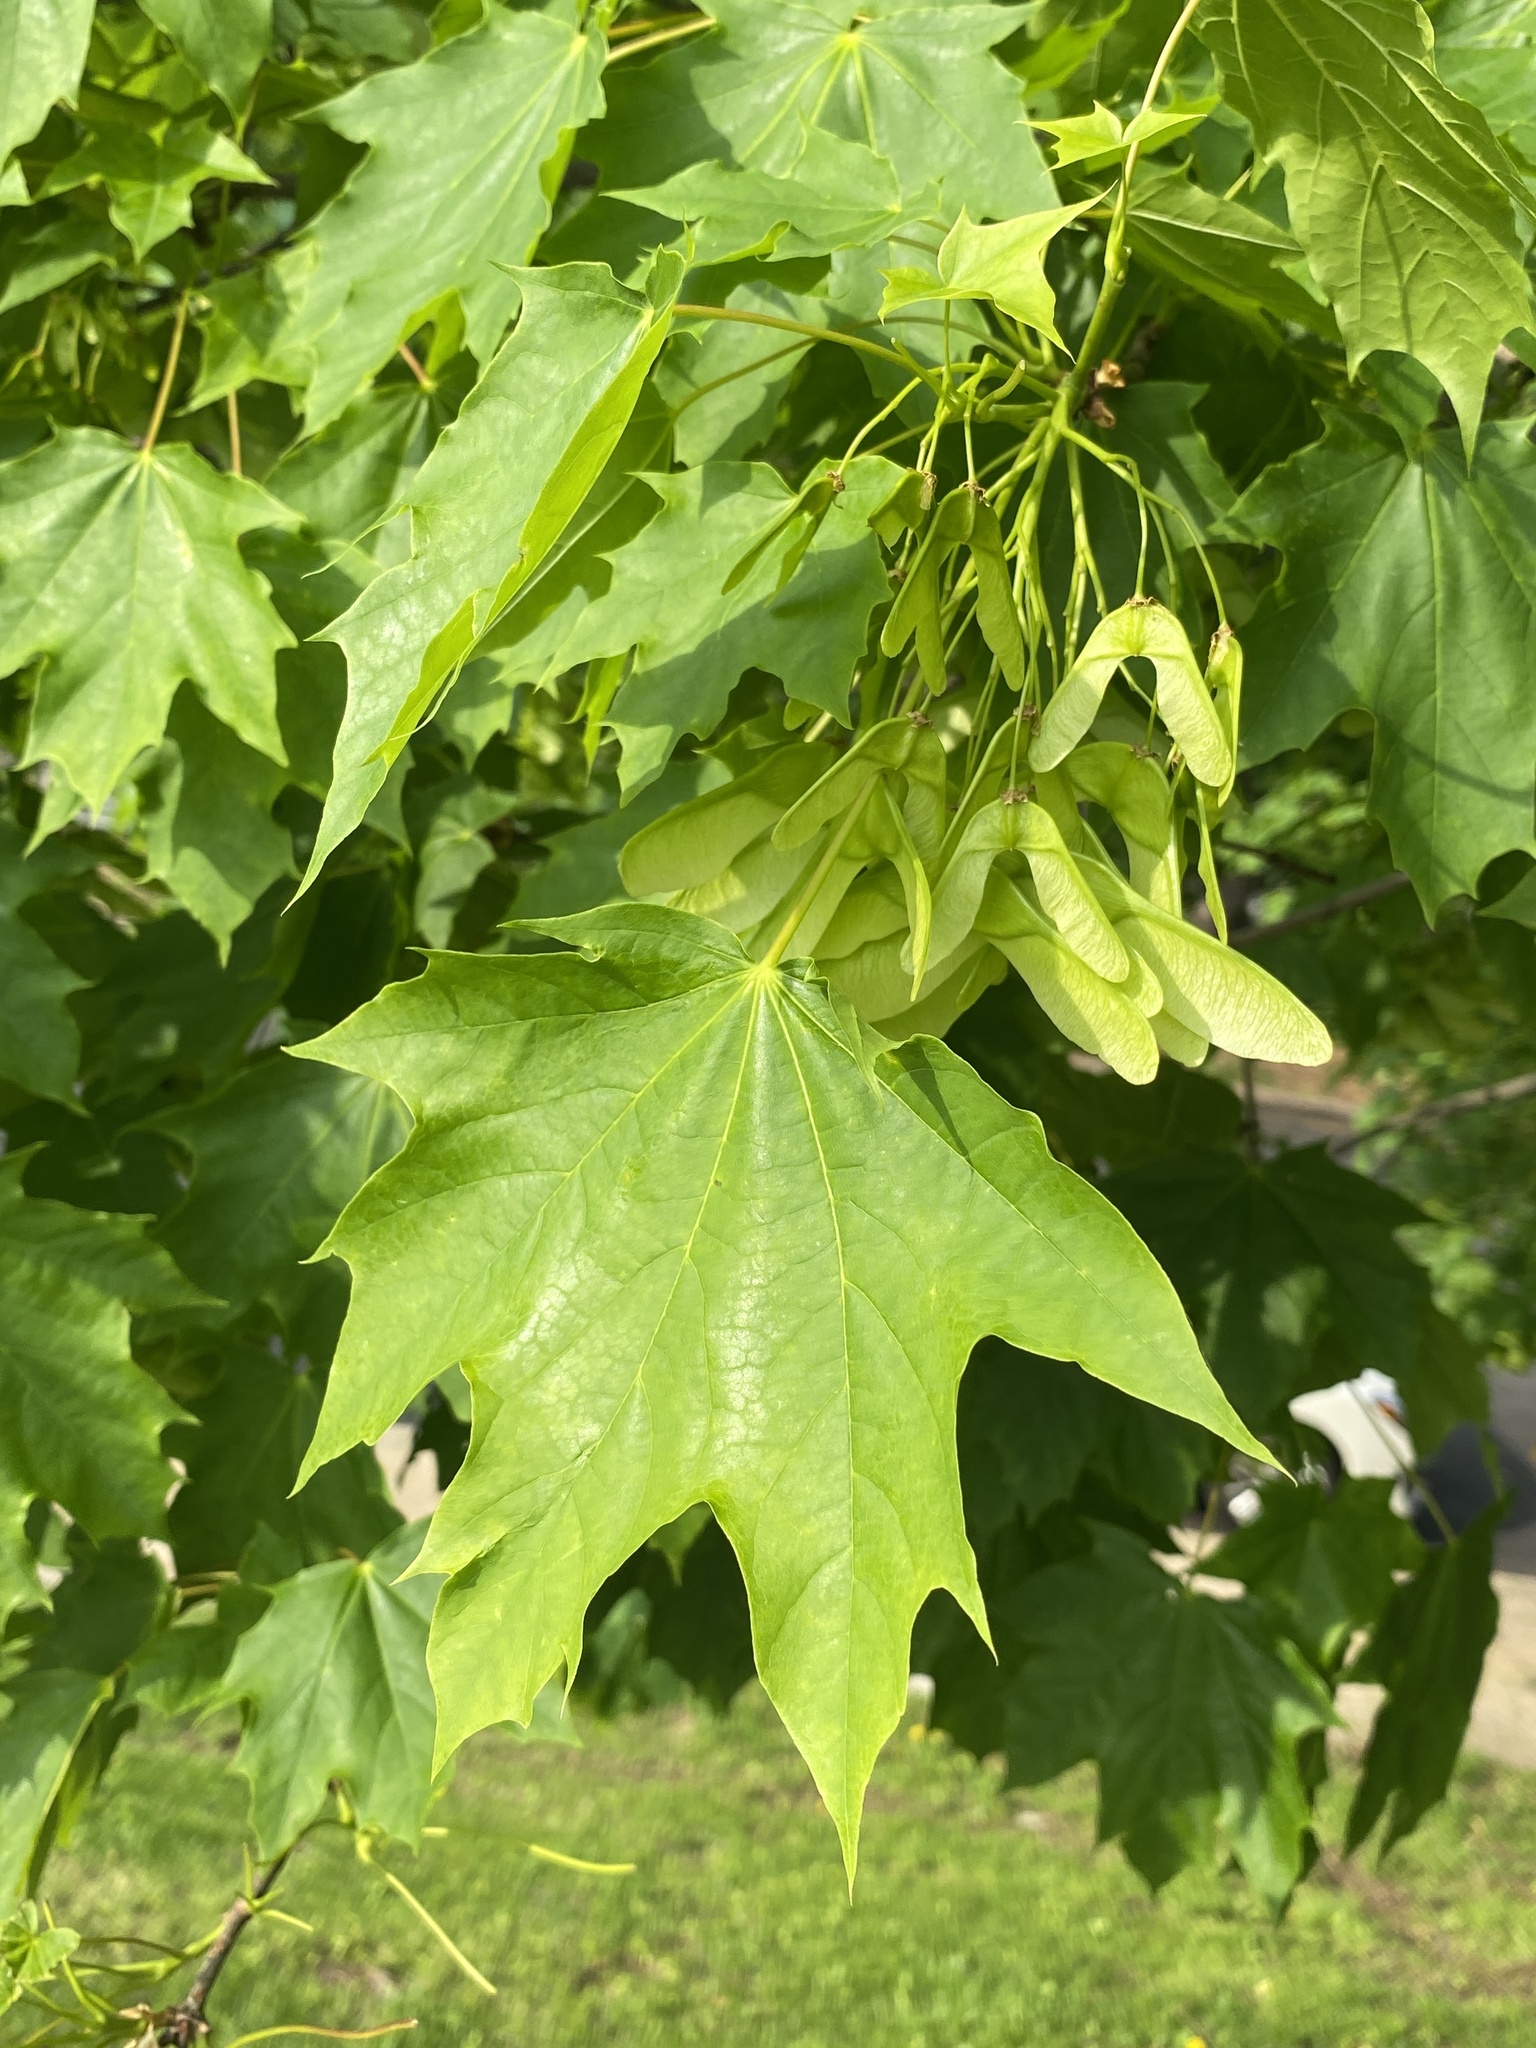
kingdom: Plantae
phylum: Tracheophyta
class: Magnoliopsida
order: Sapindales
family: Sapindaceae
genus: Acer
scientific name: Acer platanoides
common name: Norway maple
